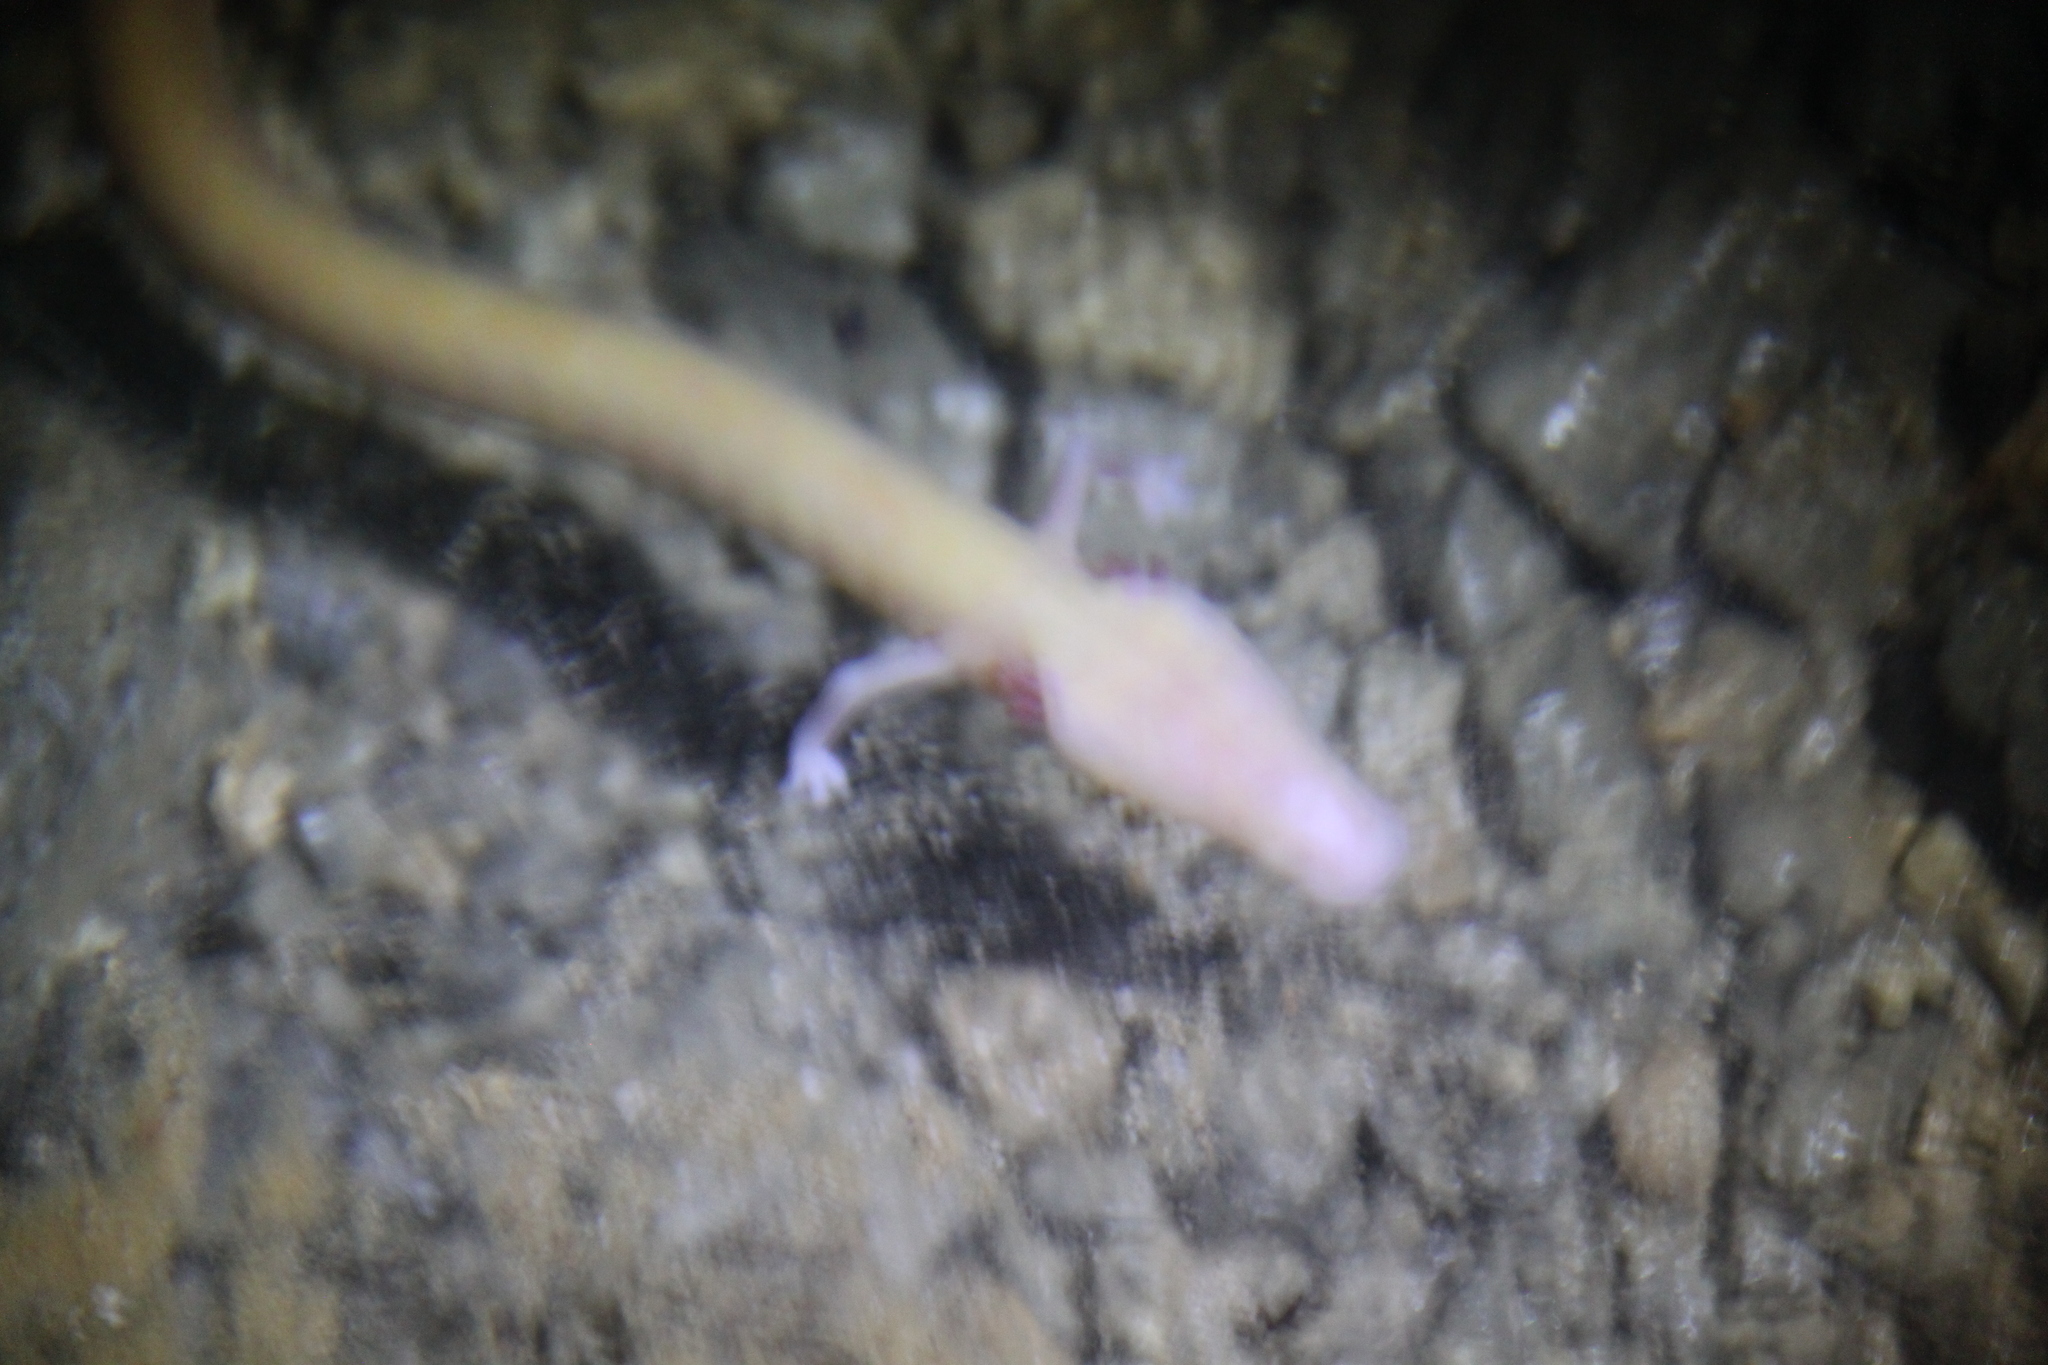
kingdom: Animalia
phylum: Chordata
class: Amphibia
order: Caudata
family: Proteidae
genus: Proteus
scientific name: Proteus anguinus
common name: Olm
